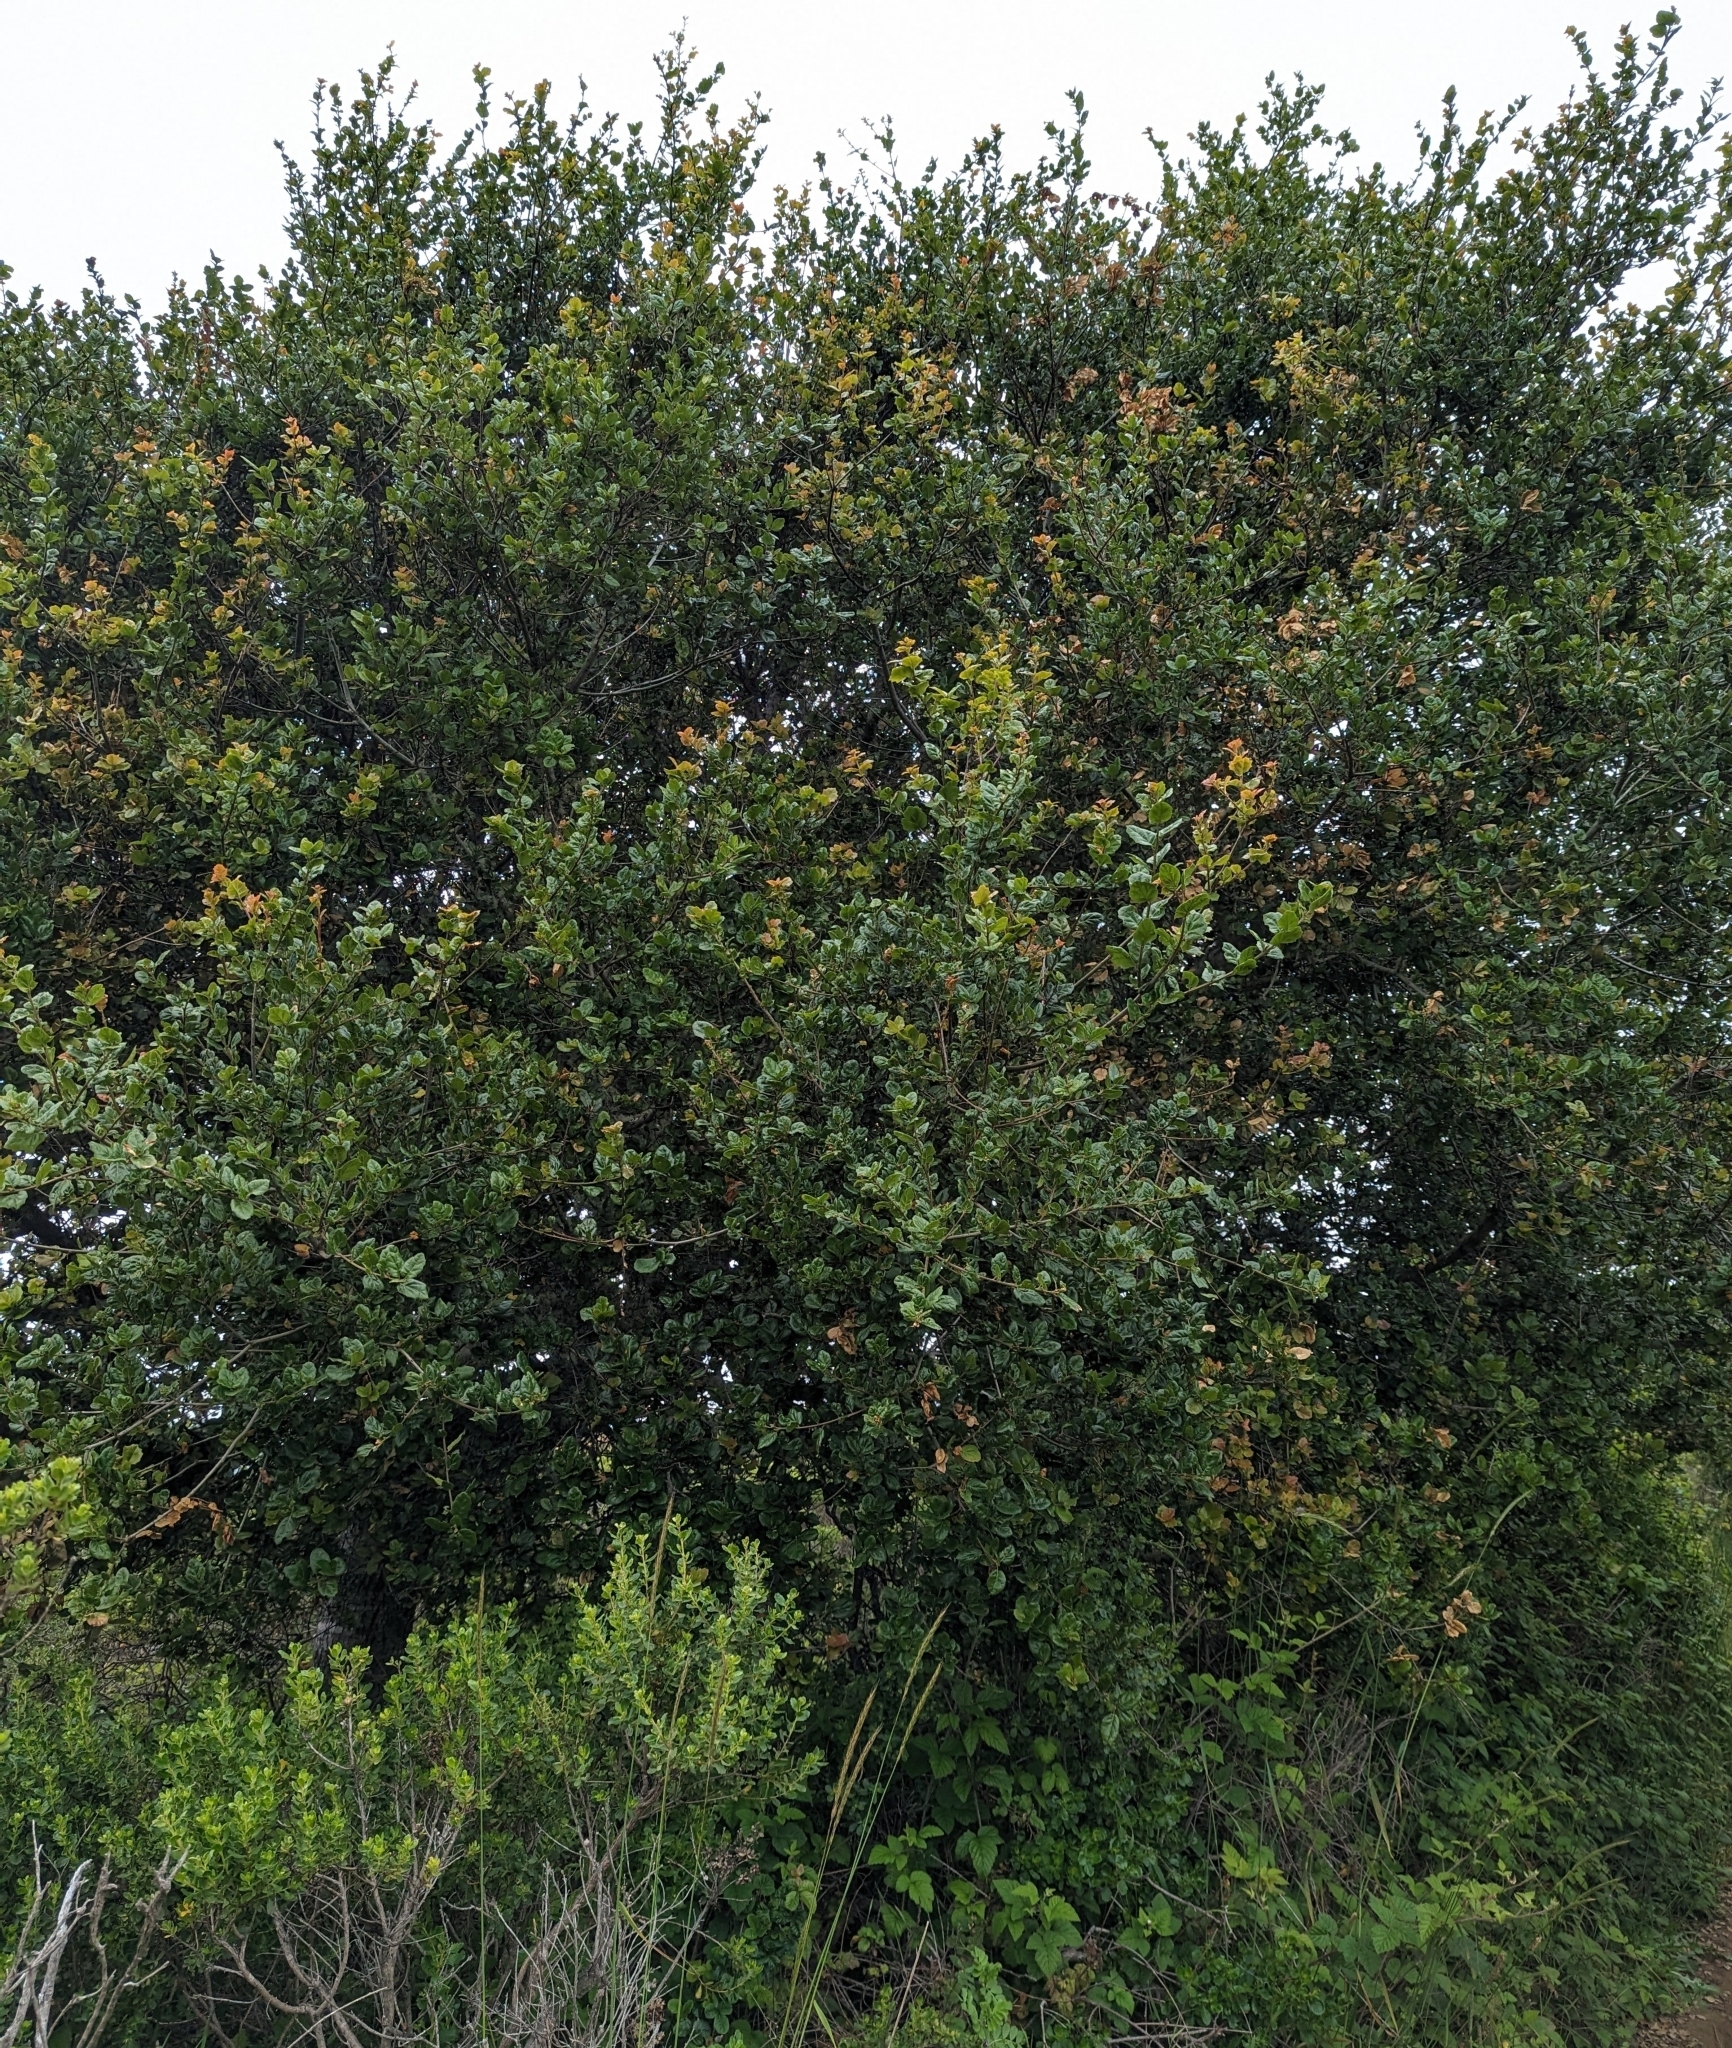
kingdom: Plantae
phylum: Tracheophyta
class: Magnoliopsida
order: Fagales
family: Fagaceae
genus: Quercus
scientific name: Quercus agrifolia
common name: California live oak
